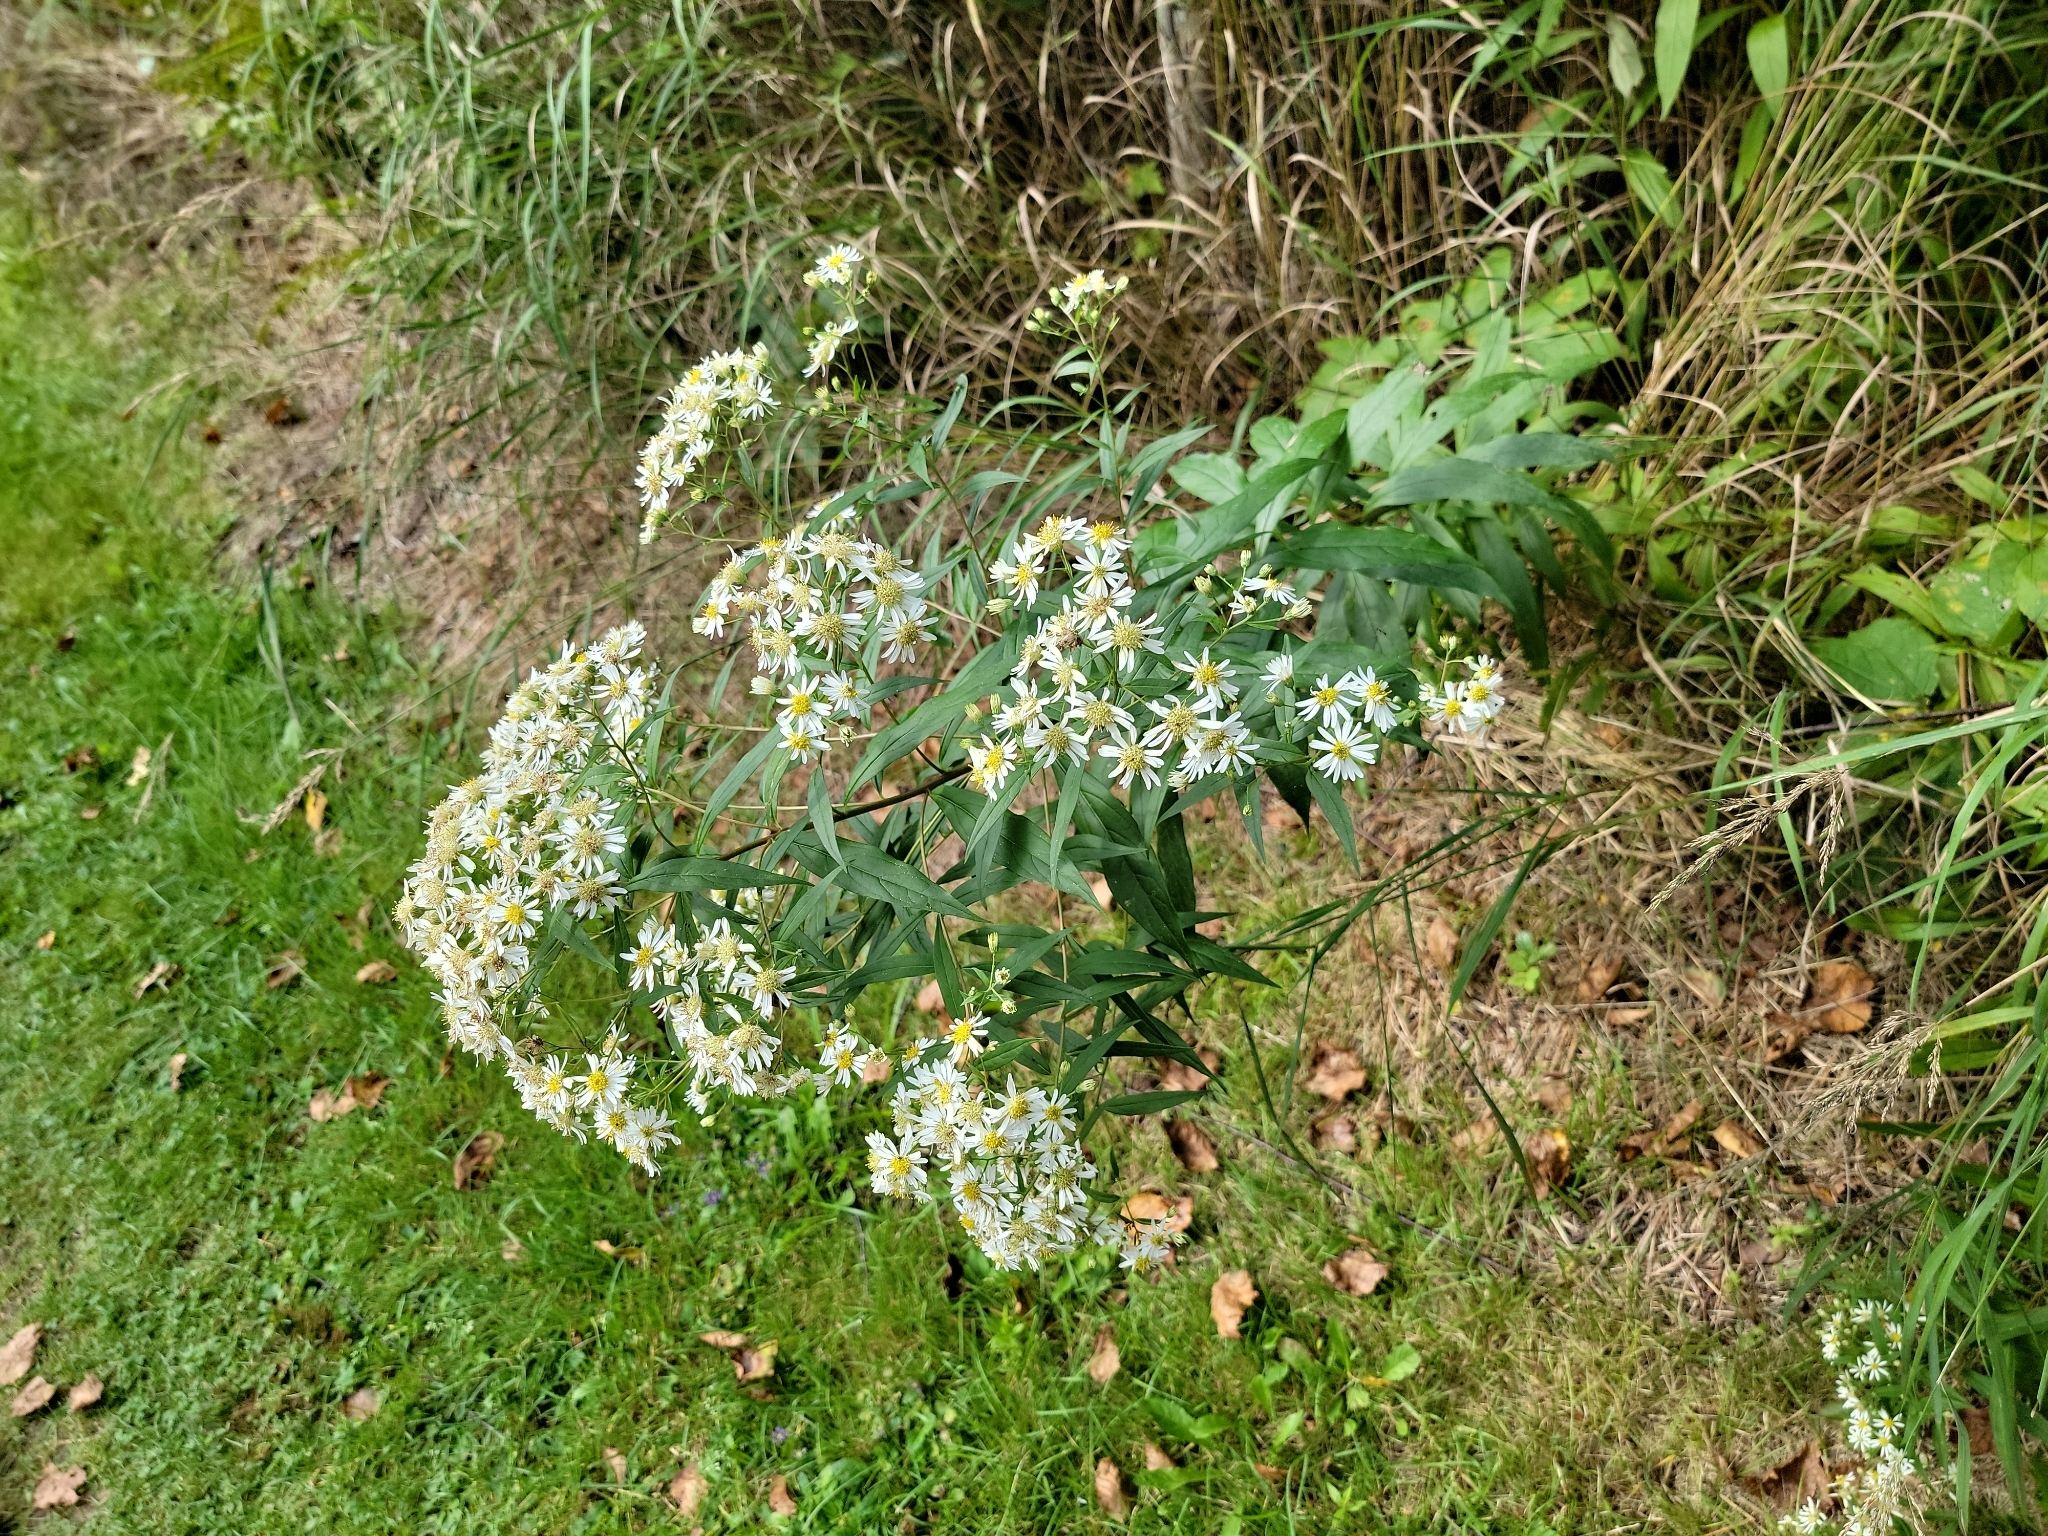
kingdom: Plantae
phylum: Tracheophyta
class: Magnoliopsida
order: Asterales
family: Asteraceae
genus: Doellingeria
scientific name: Doellingeria umbellata
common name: Flat-top white aster
